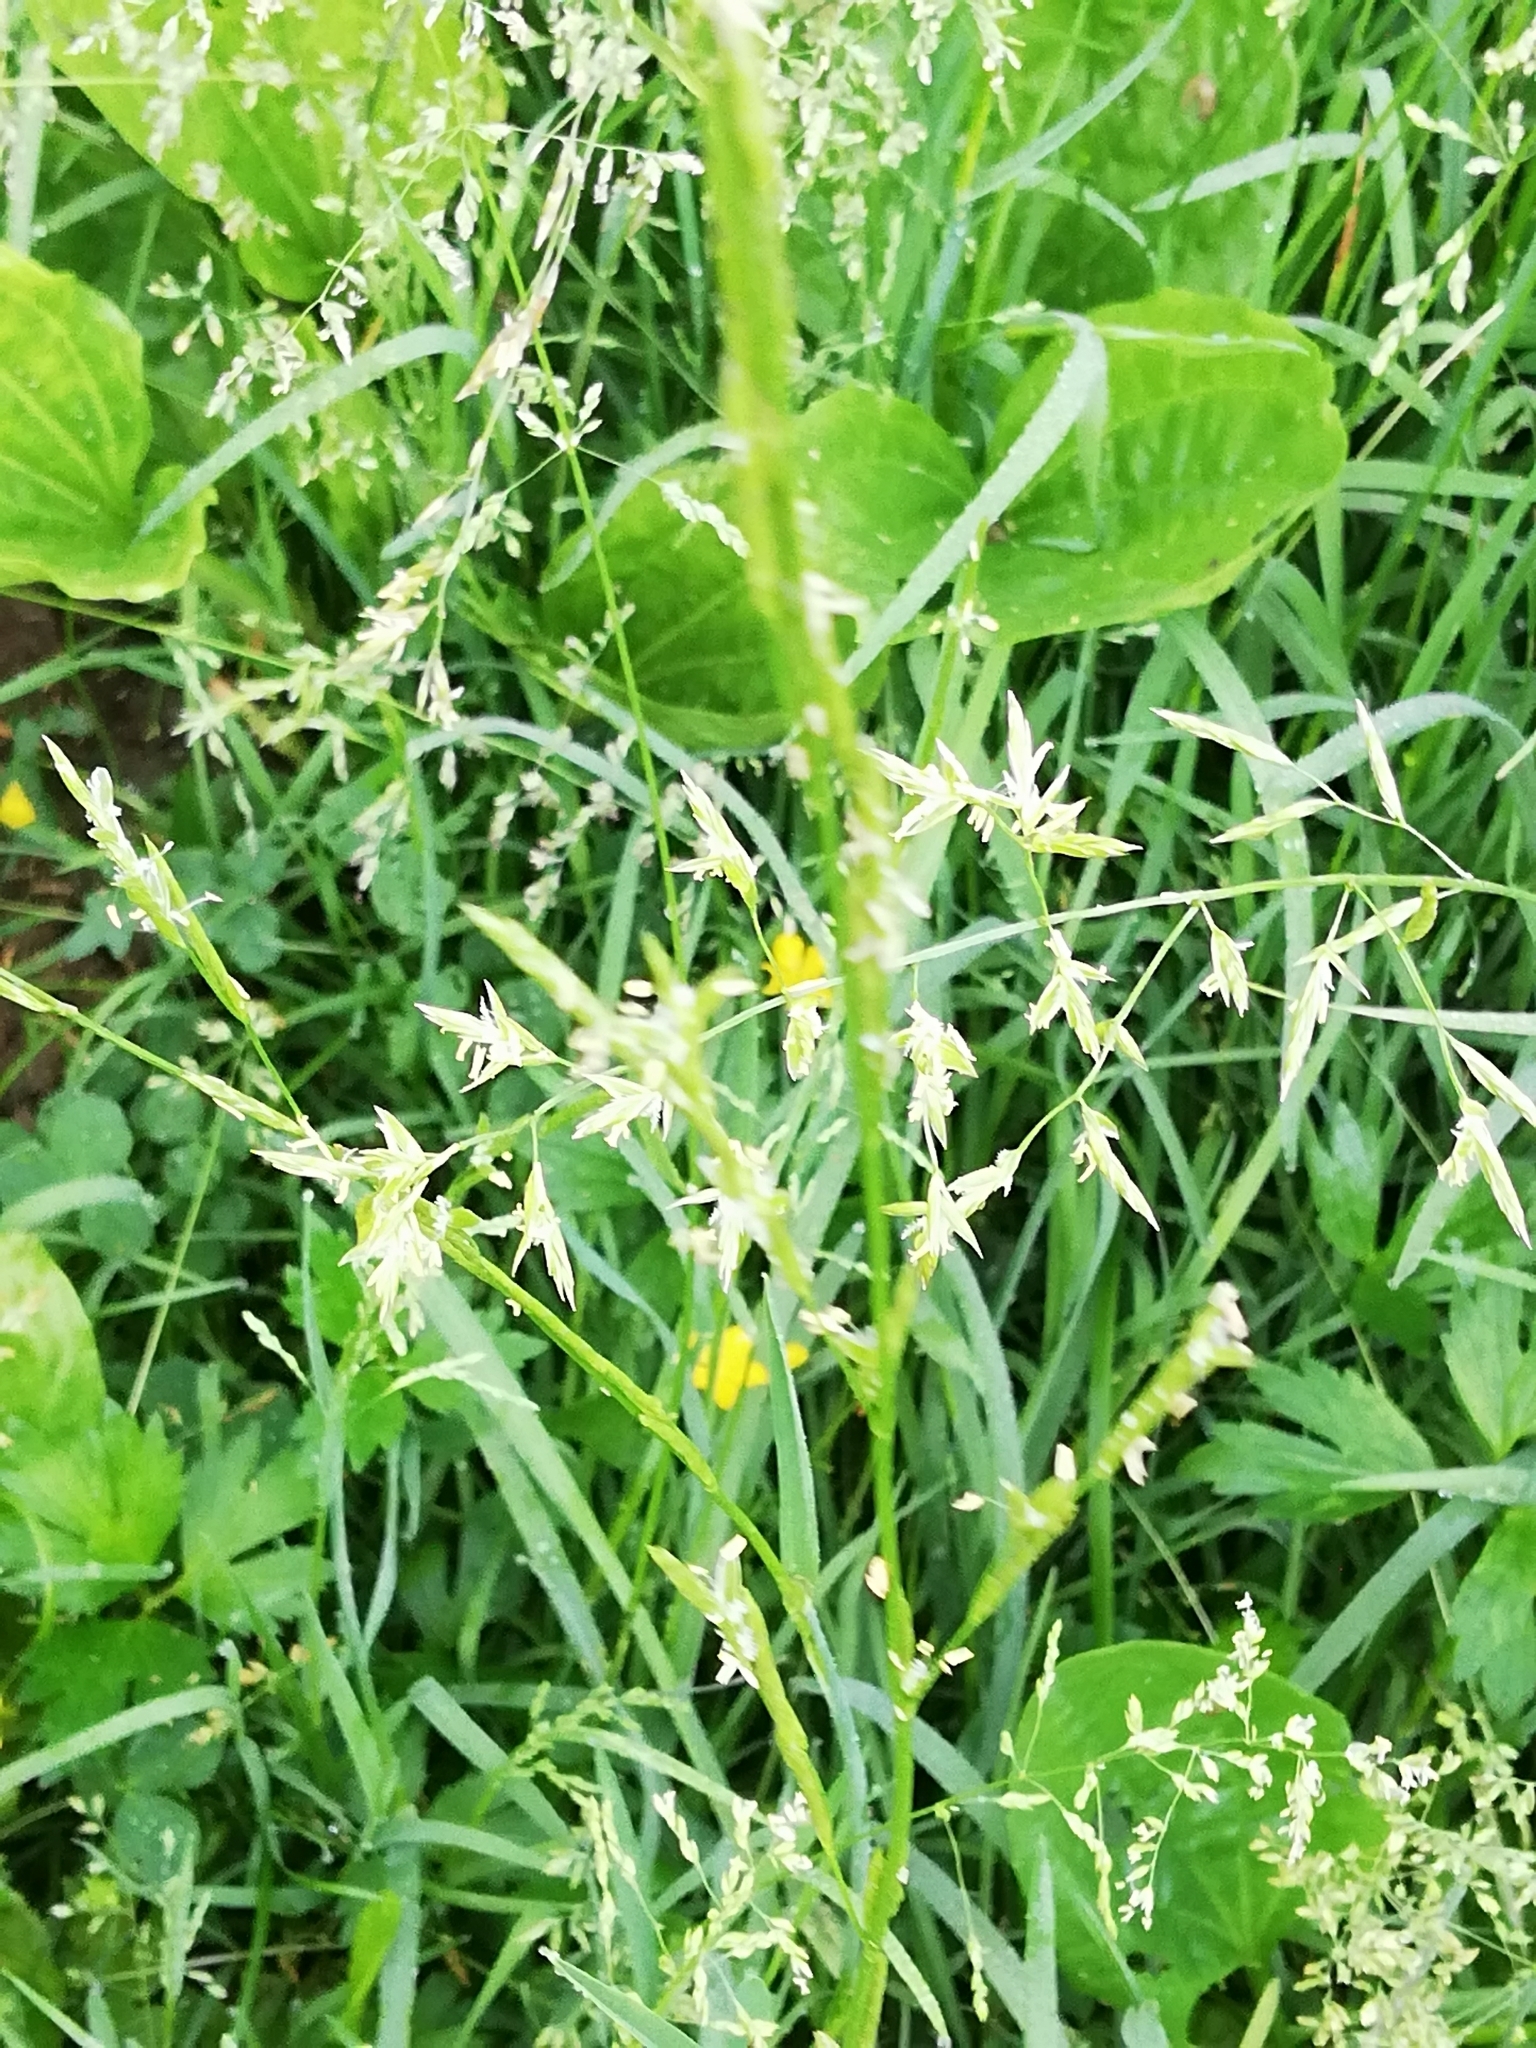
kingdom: Plantae
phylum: Tracheophyta
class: Liliopsida
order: Poales
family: Poaceae
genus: Lolium
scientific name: Lolium pratense
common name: Dover grass
